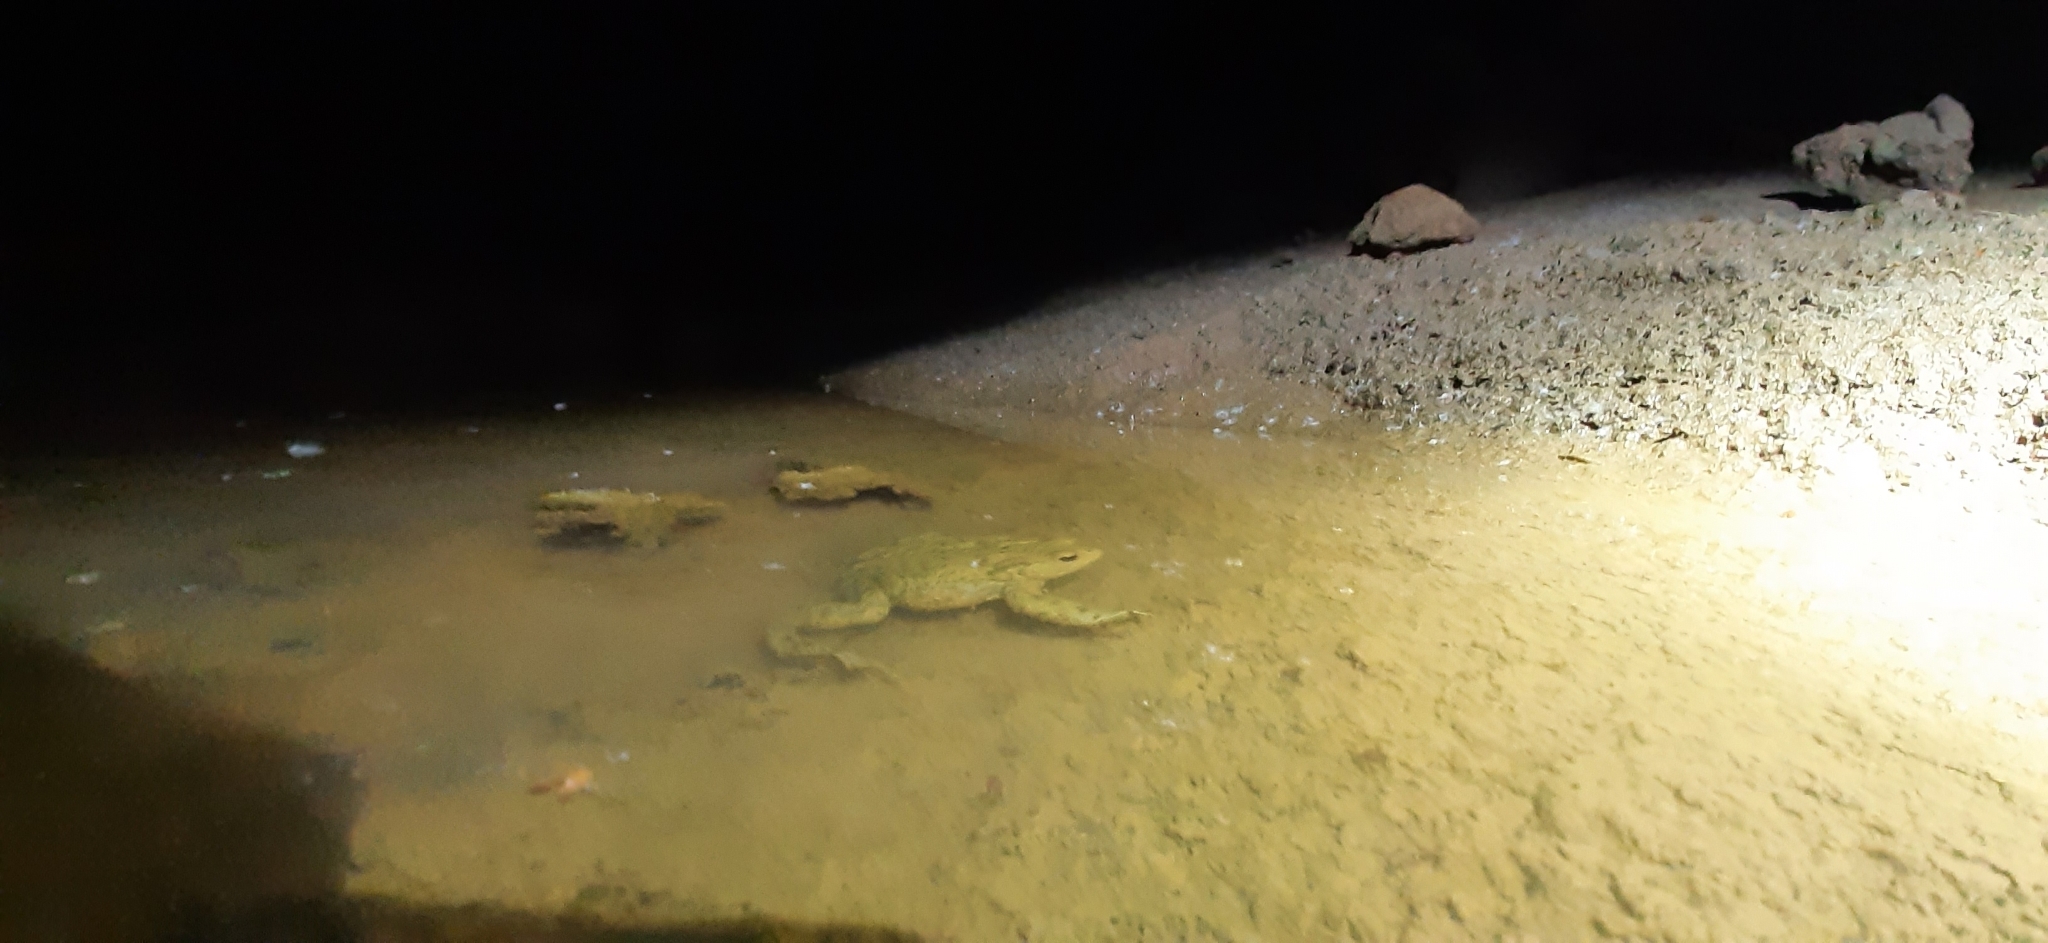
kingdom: Animalia
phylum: Chordata
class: Amphibia
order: Anura
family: Bufonidae
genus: Bufo
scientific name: Bufo bufo
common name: Common toad
